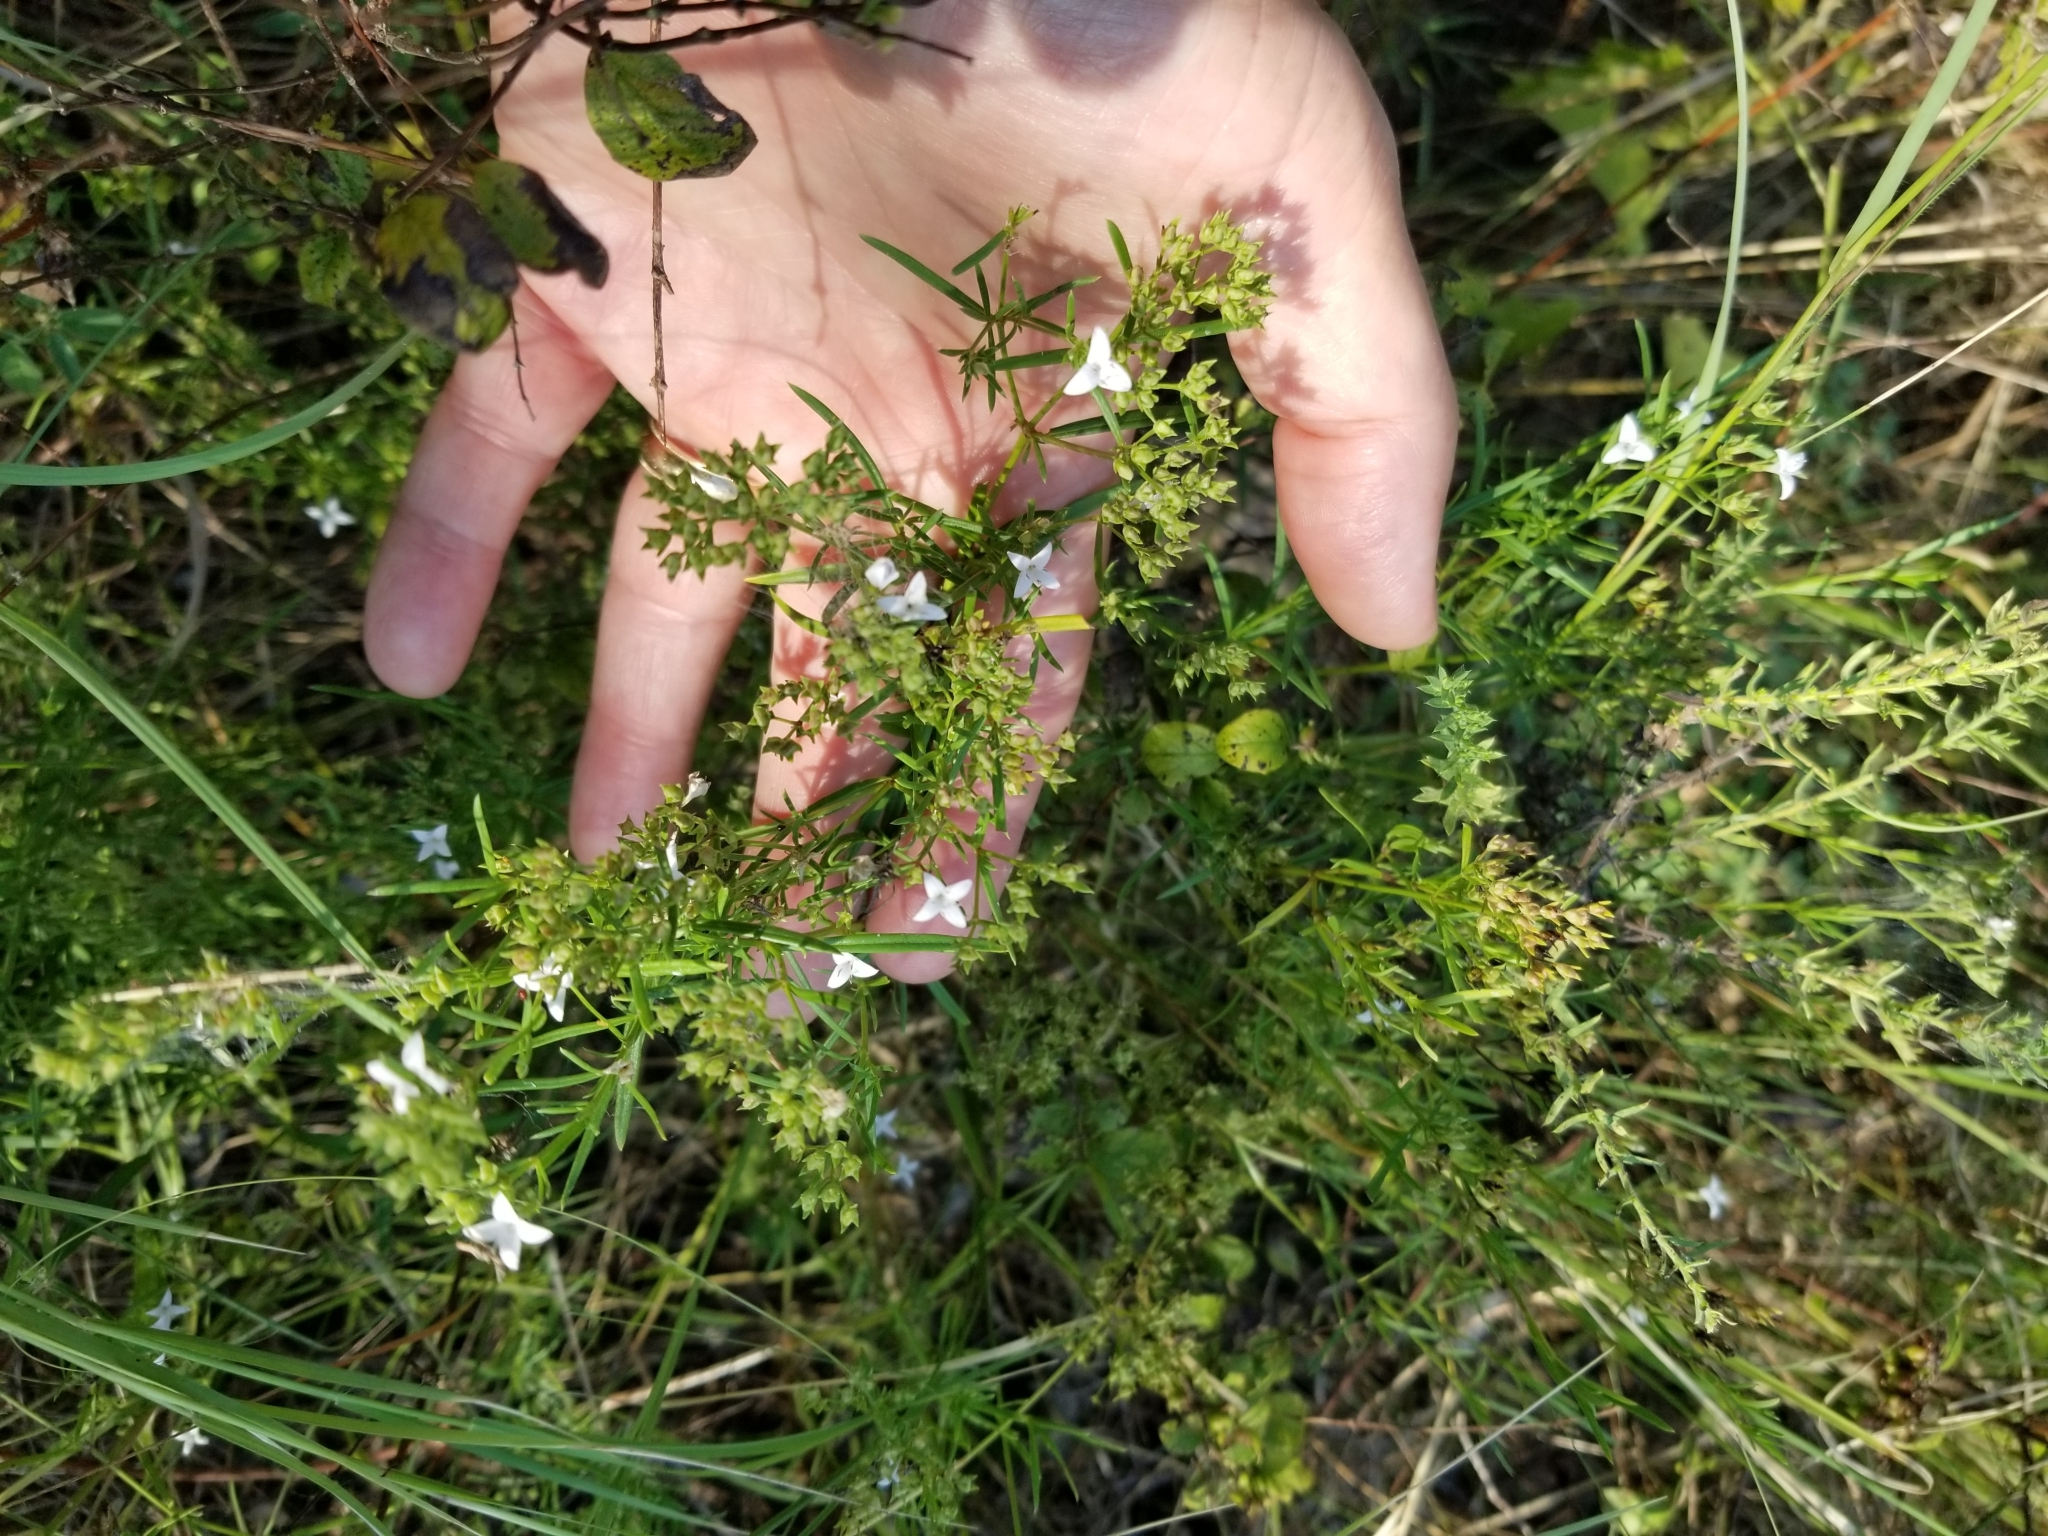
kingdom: Plantae
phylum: Tracheophyta
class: Magnoliopsida
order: Gentianales
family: Rubiaceae
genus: Stenaria
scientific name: Stenaria nigricans
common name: Diamondflowers
